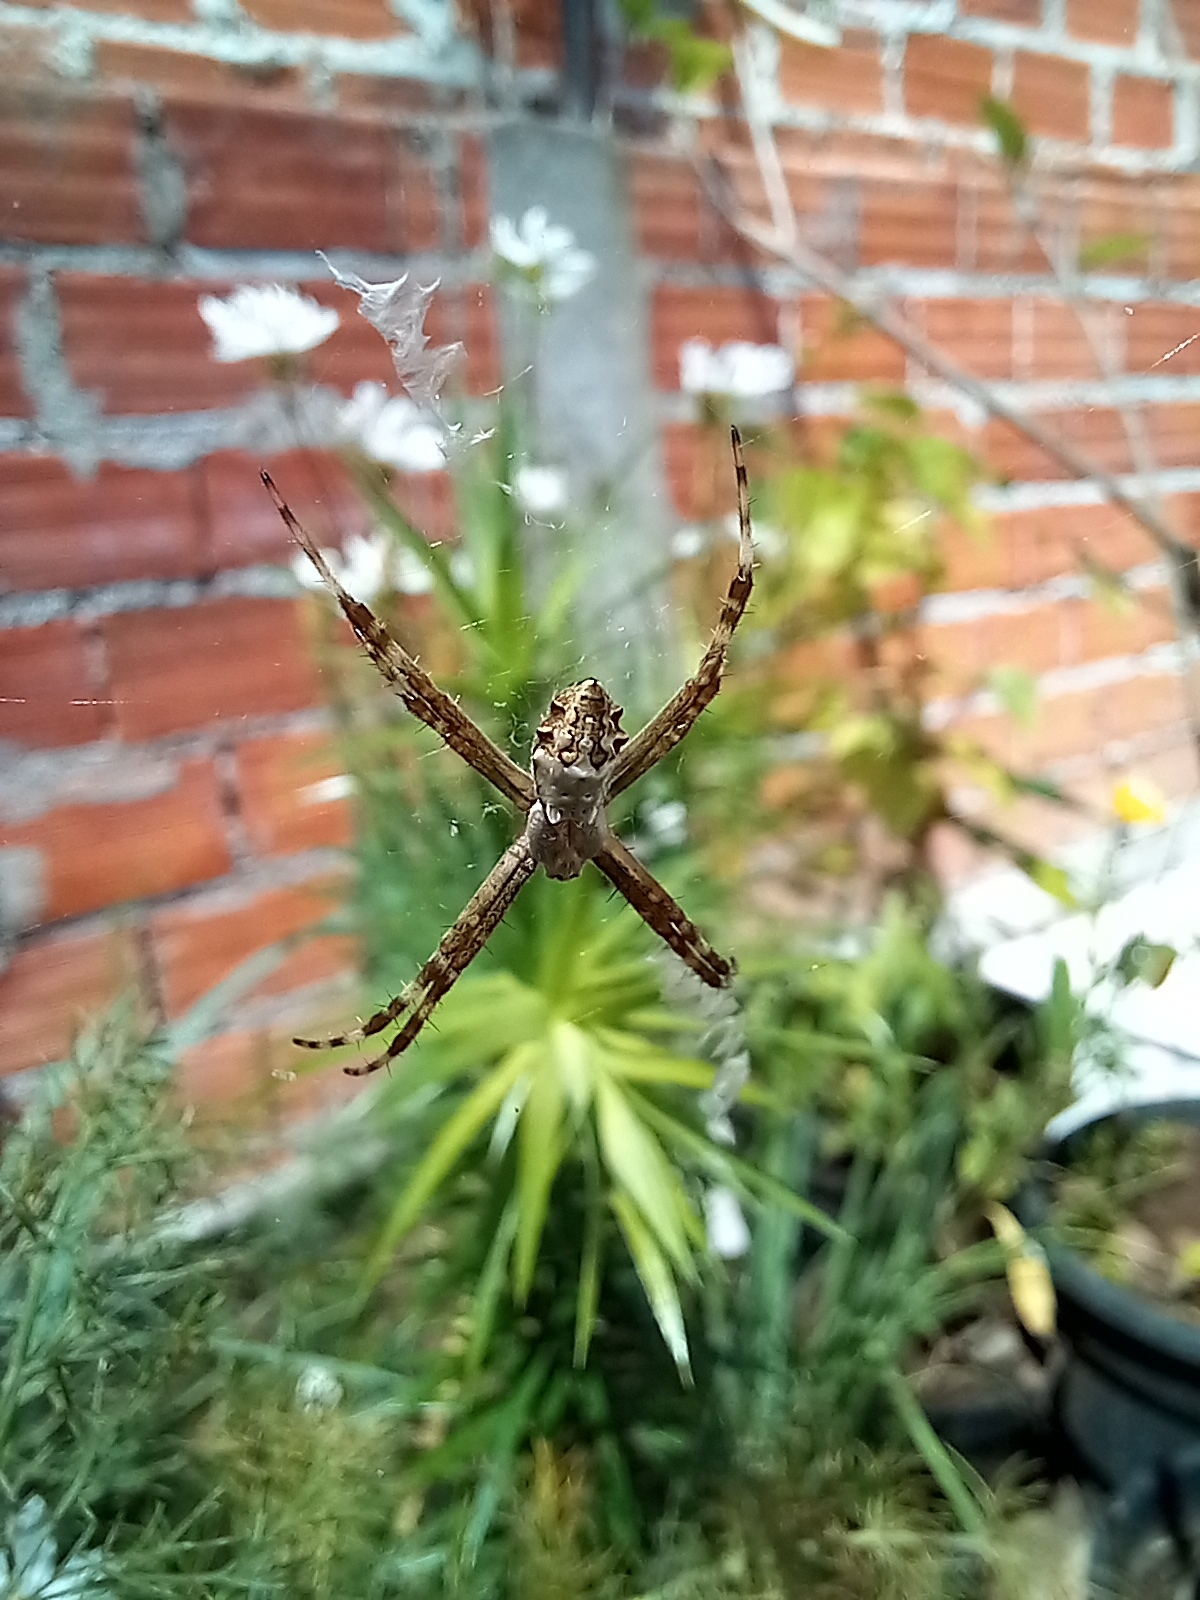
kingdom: Animalia
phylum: Arthropoda
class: Arachnida
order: Araneae
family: Araneidae
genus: Argiope
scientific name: Argiope argentata
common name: Orb weavers
